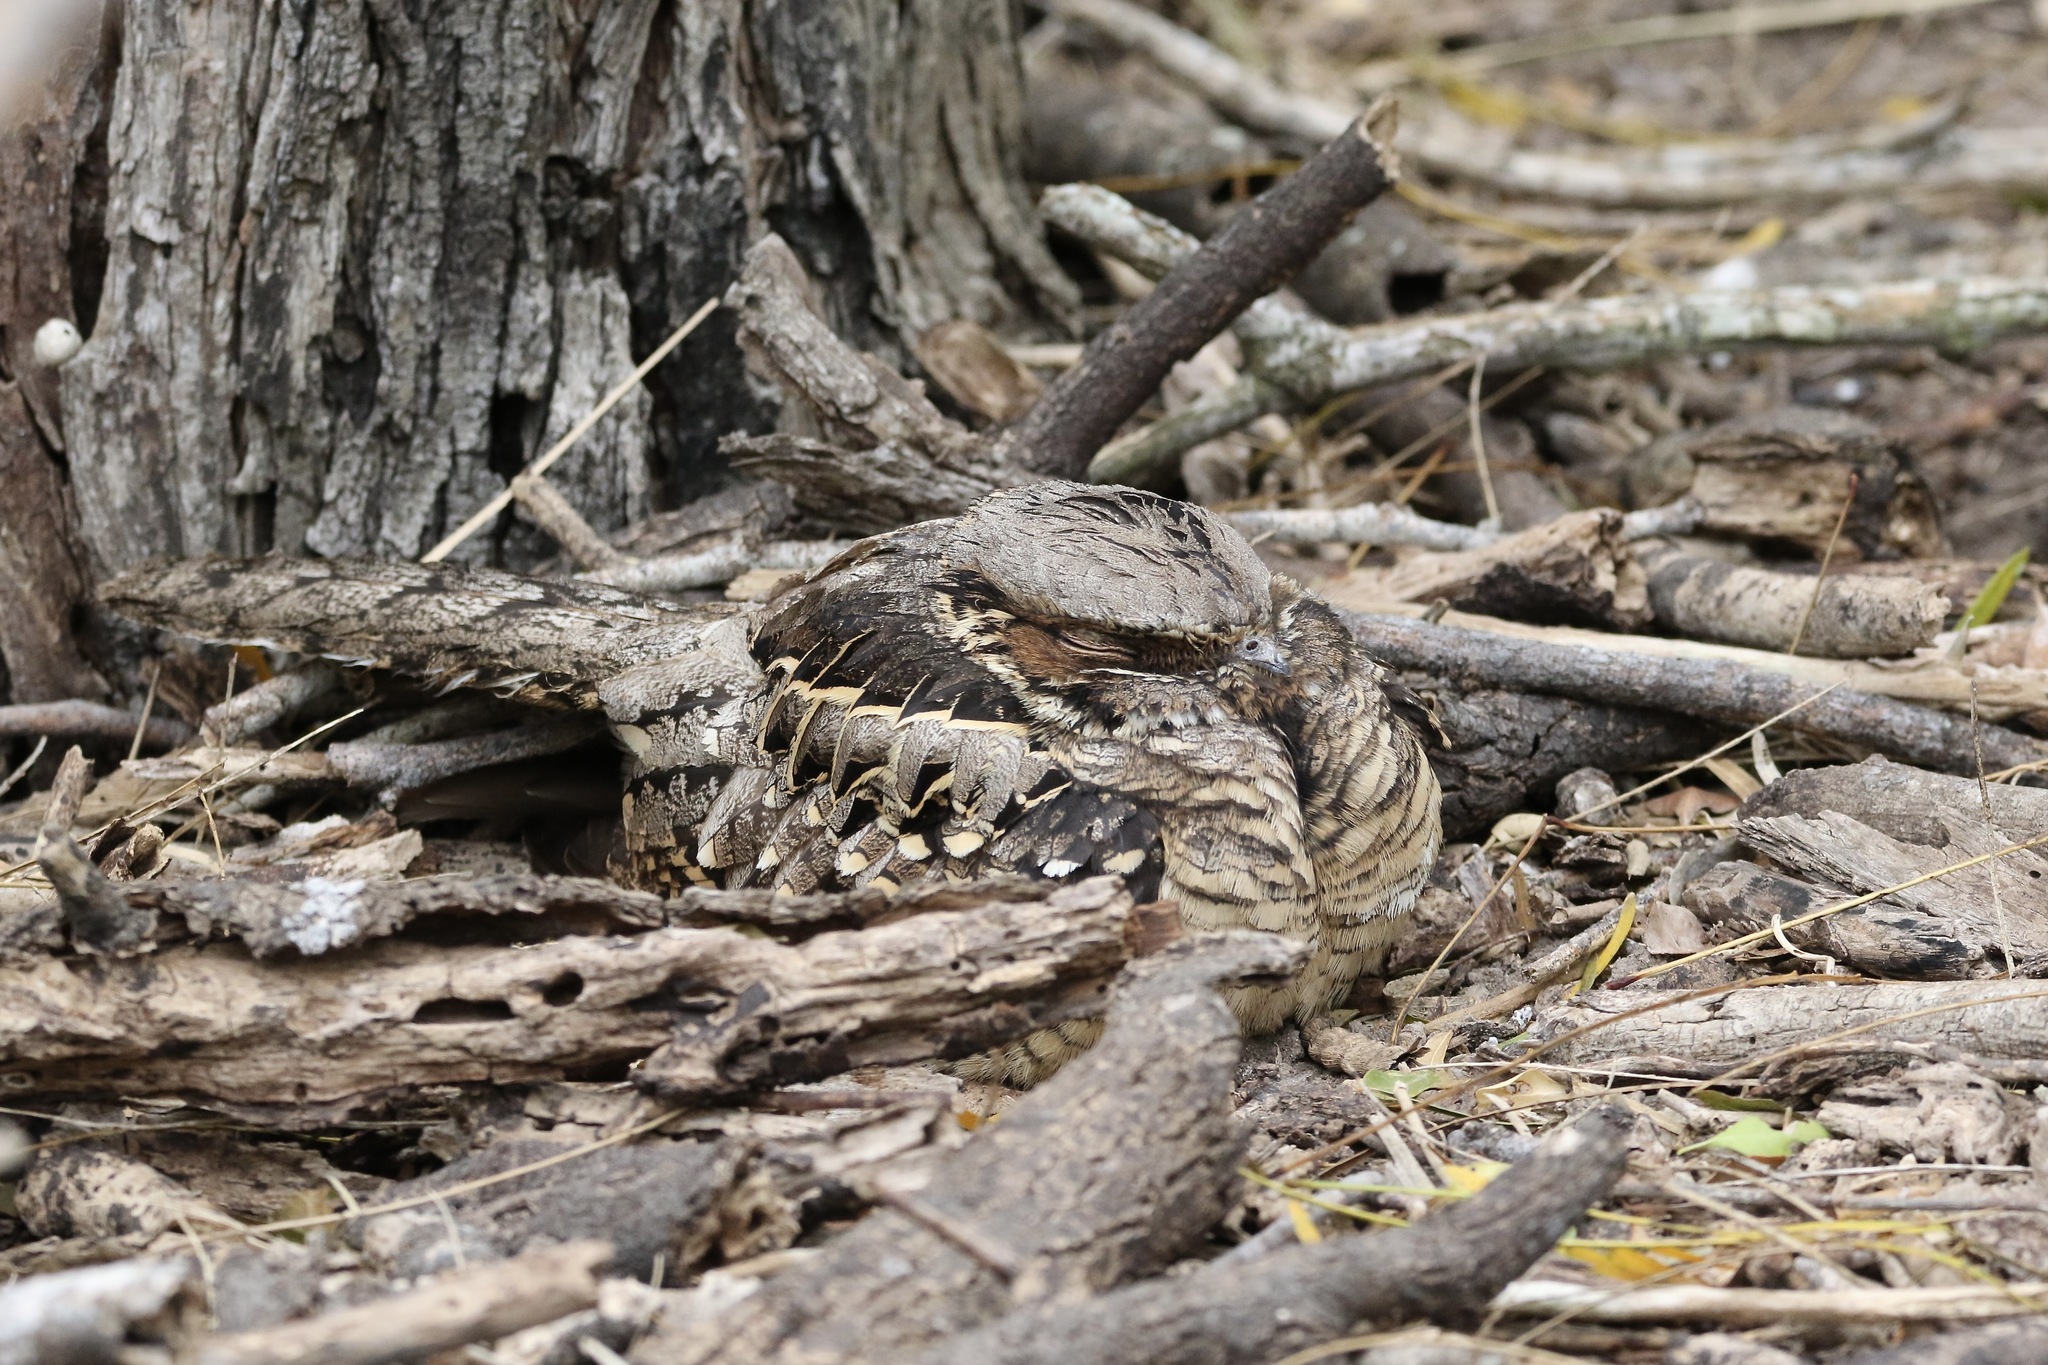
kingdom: Animalia
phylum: Chordata
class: Aves
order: Caprimulgiformes
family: Caprimulgidae
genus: Nyctidromus
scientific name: Nyctidromus albicollis
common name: Pauraque
